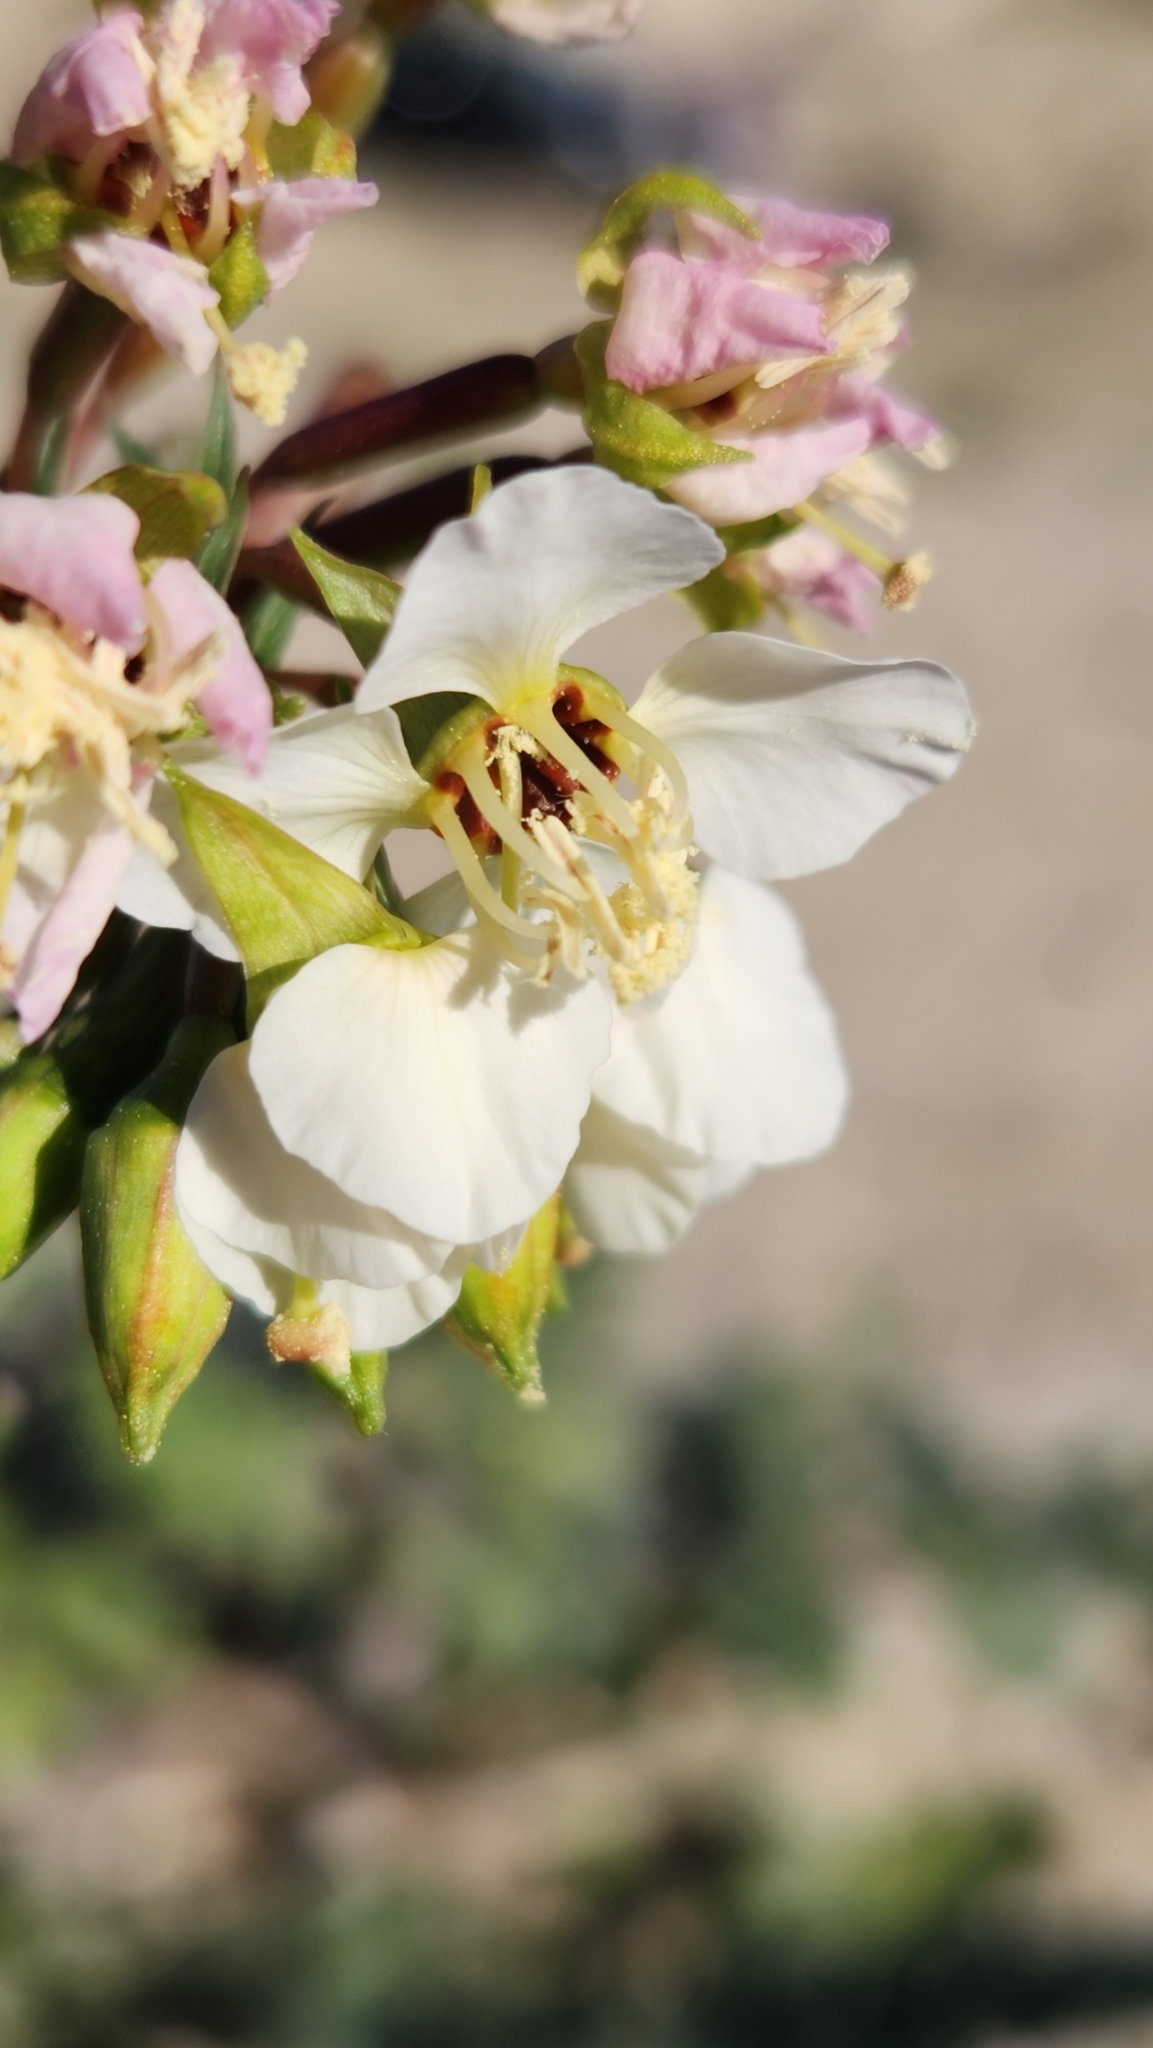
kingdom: Plantae
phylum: Tracheophyta
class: Magnoliopsida
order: Myrtales
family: Onagraceae
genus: Chylismia
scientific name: Chylismia claviformis
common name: Browneyes
